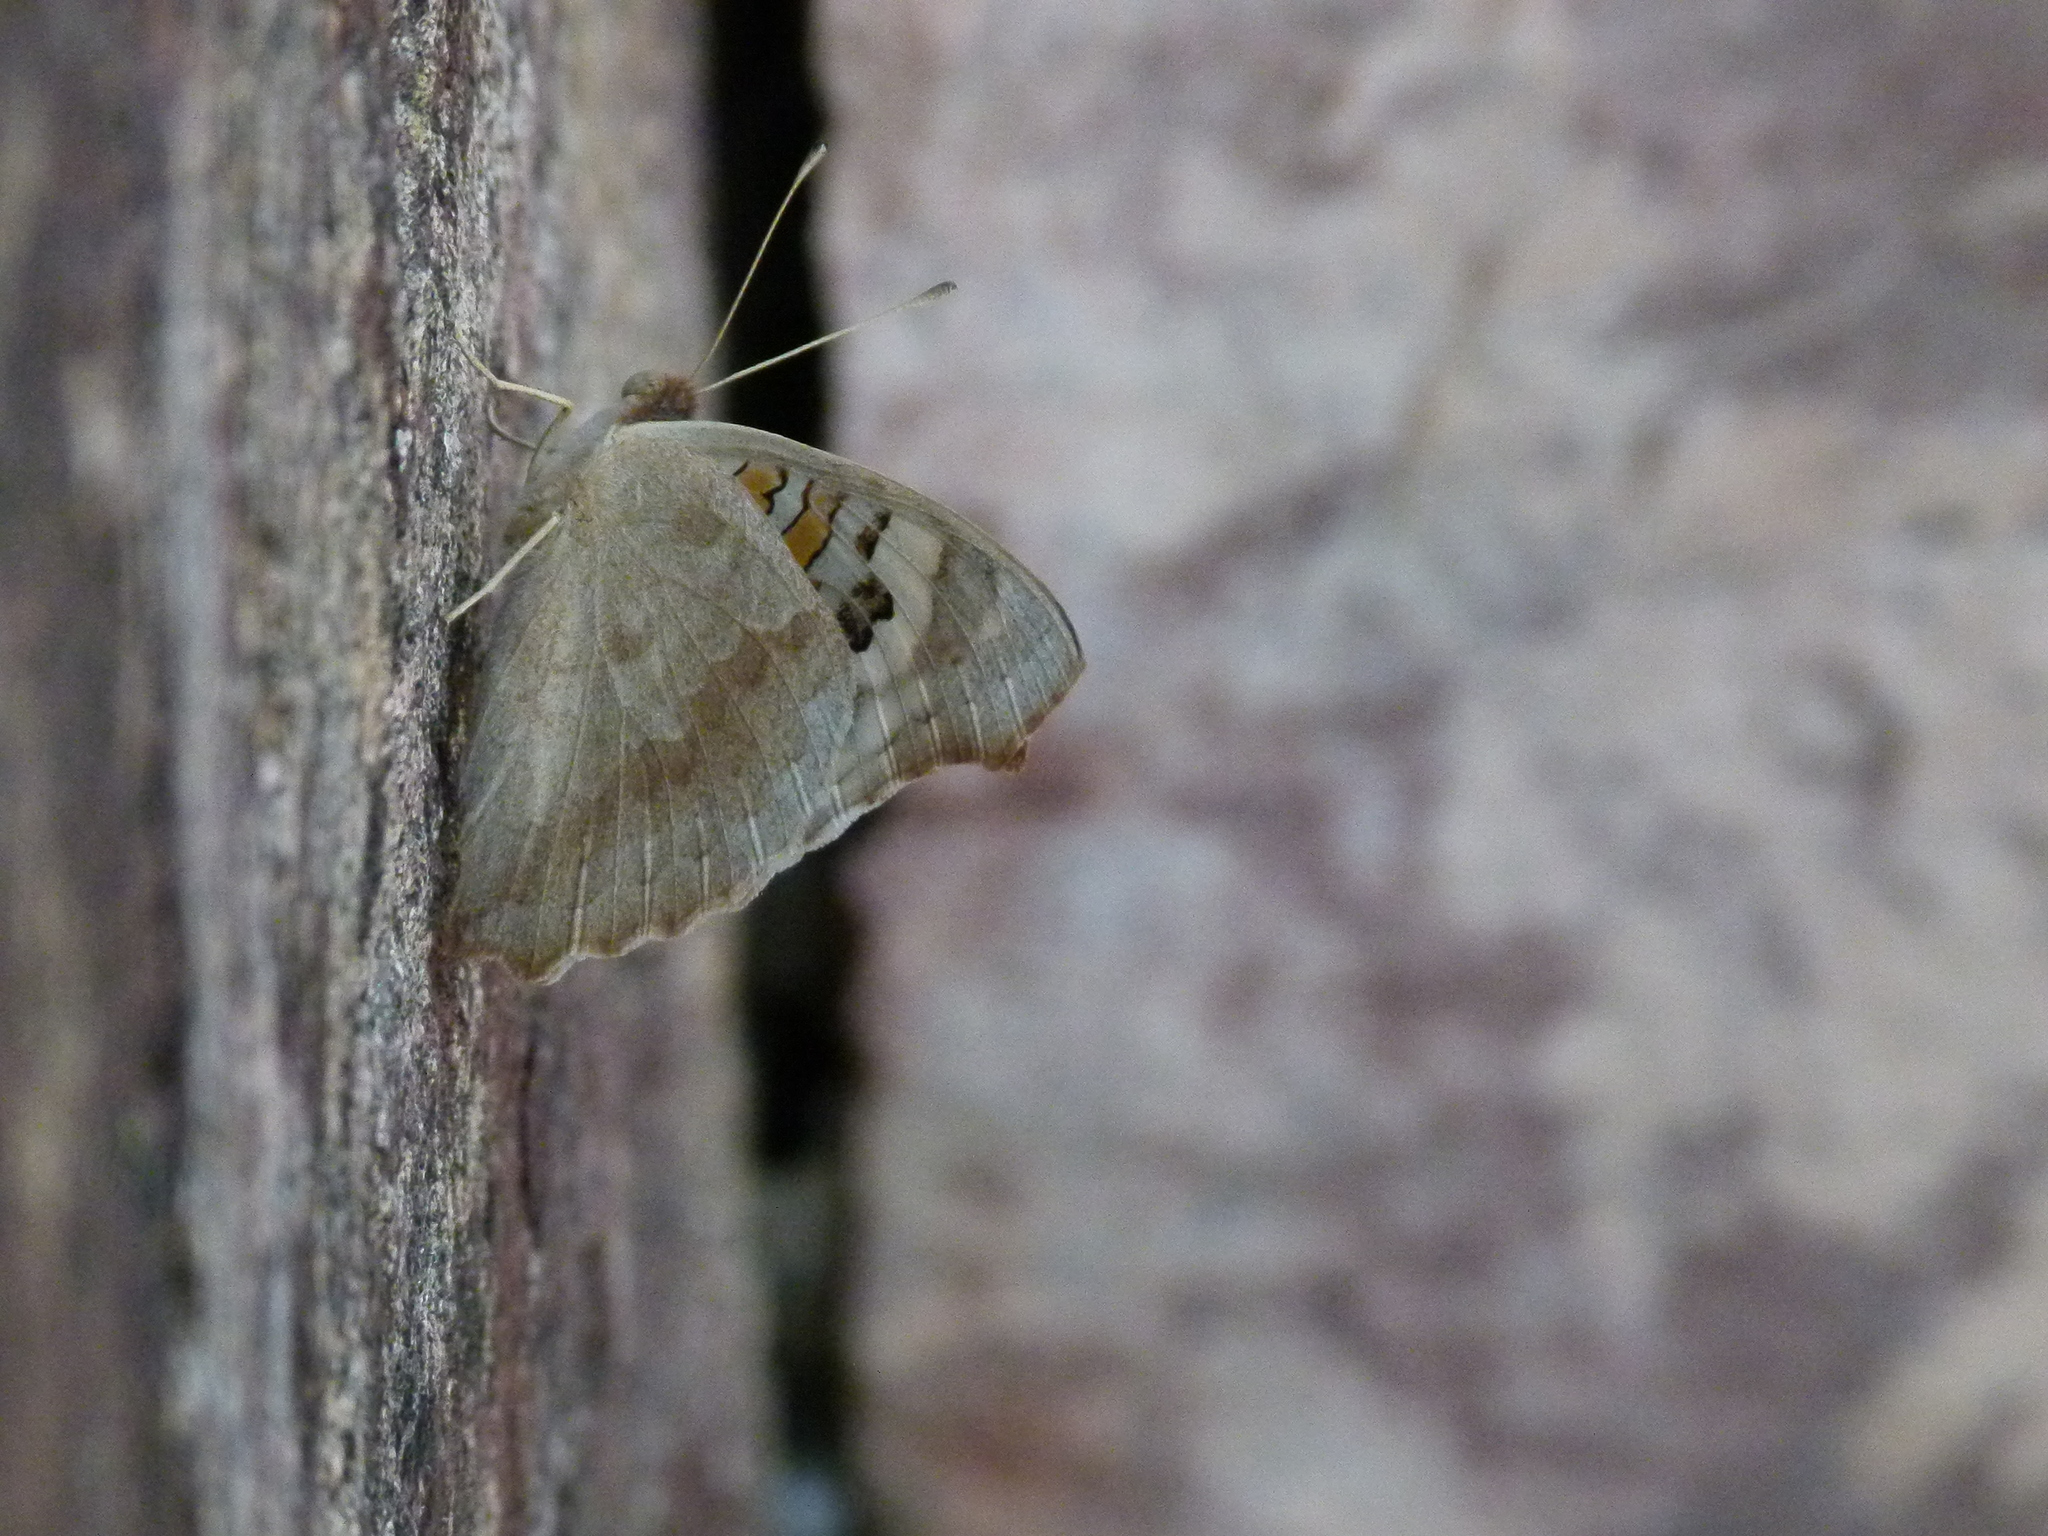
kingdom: Animalia
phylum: Arthropoda
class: Insecta
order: Lepidoptera
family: Nymphalidae
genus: Junonia
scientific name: Junonia orithya
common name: Blue pansy
